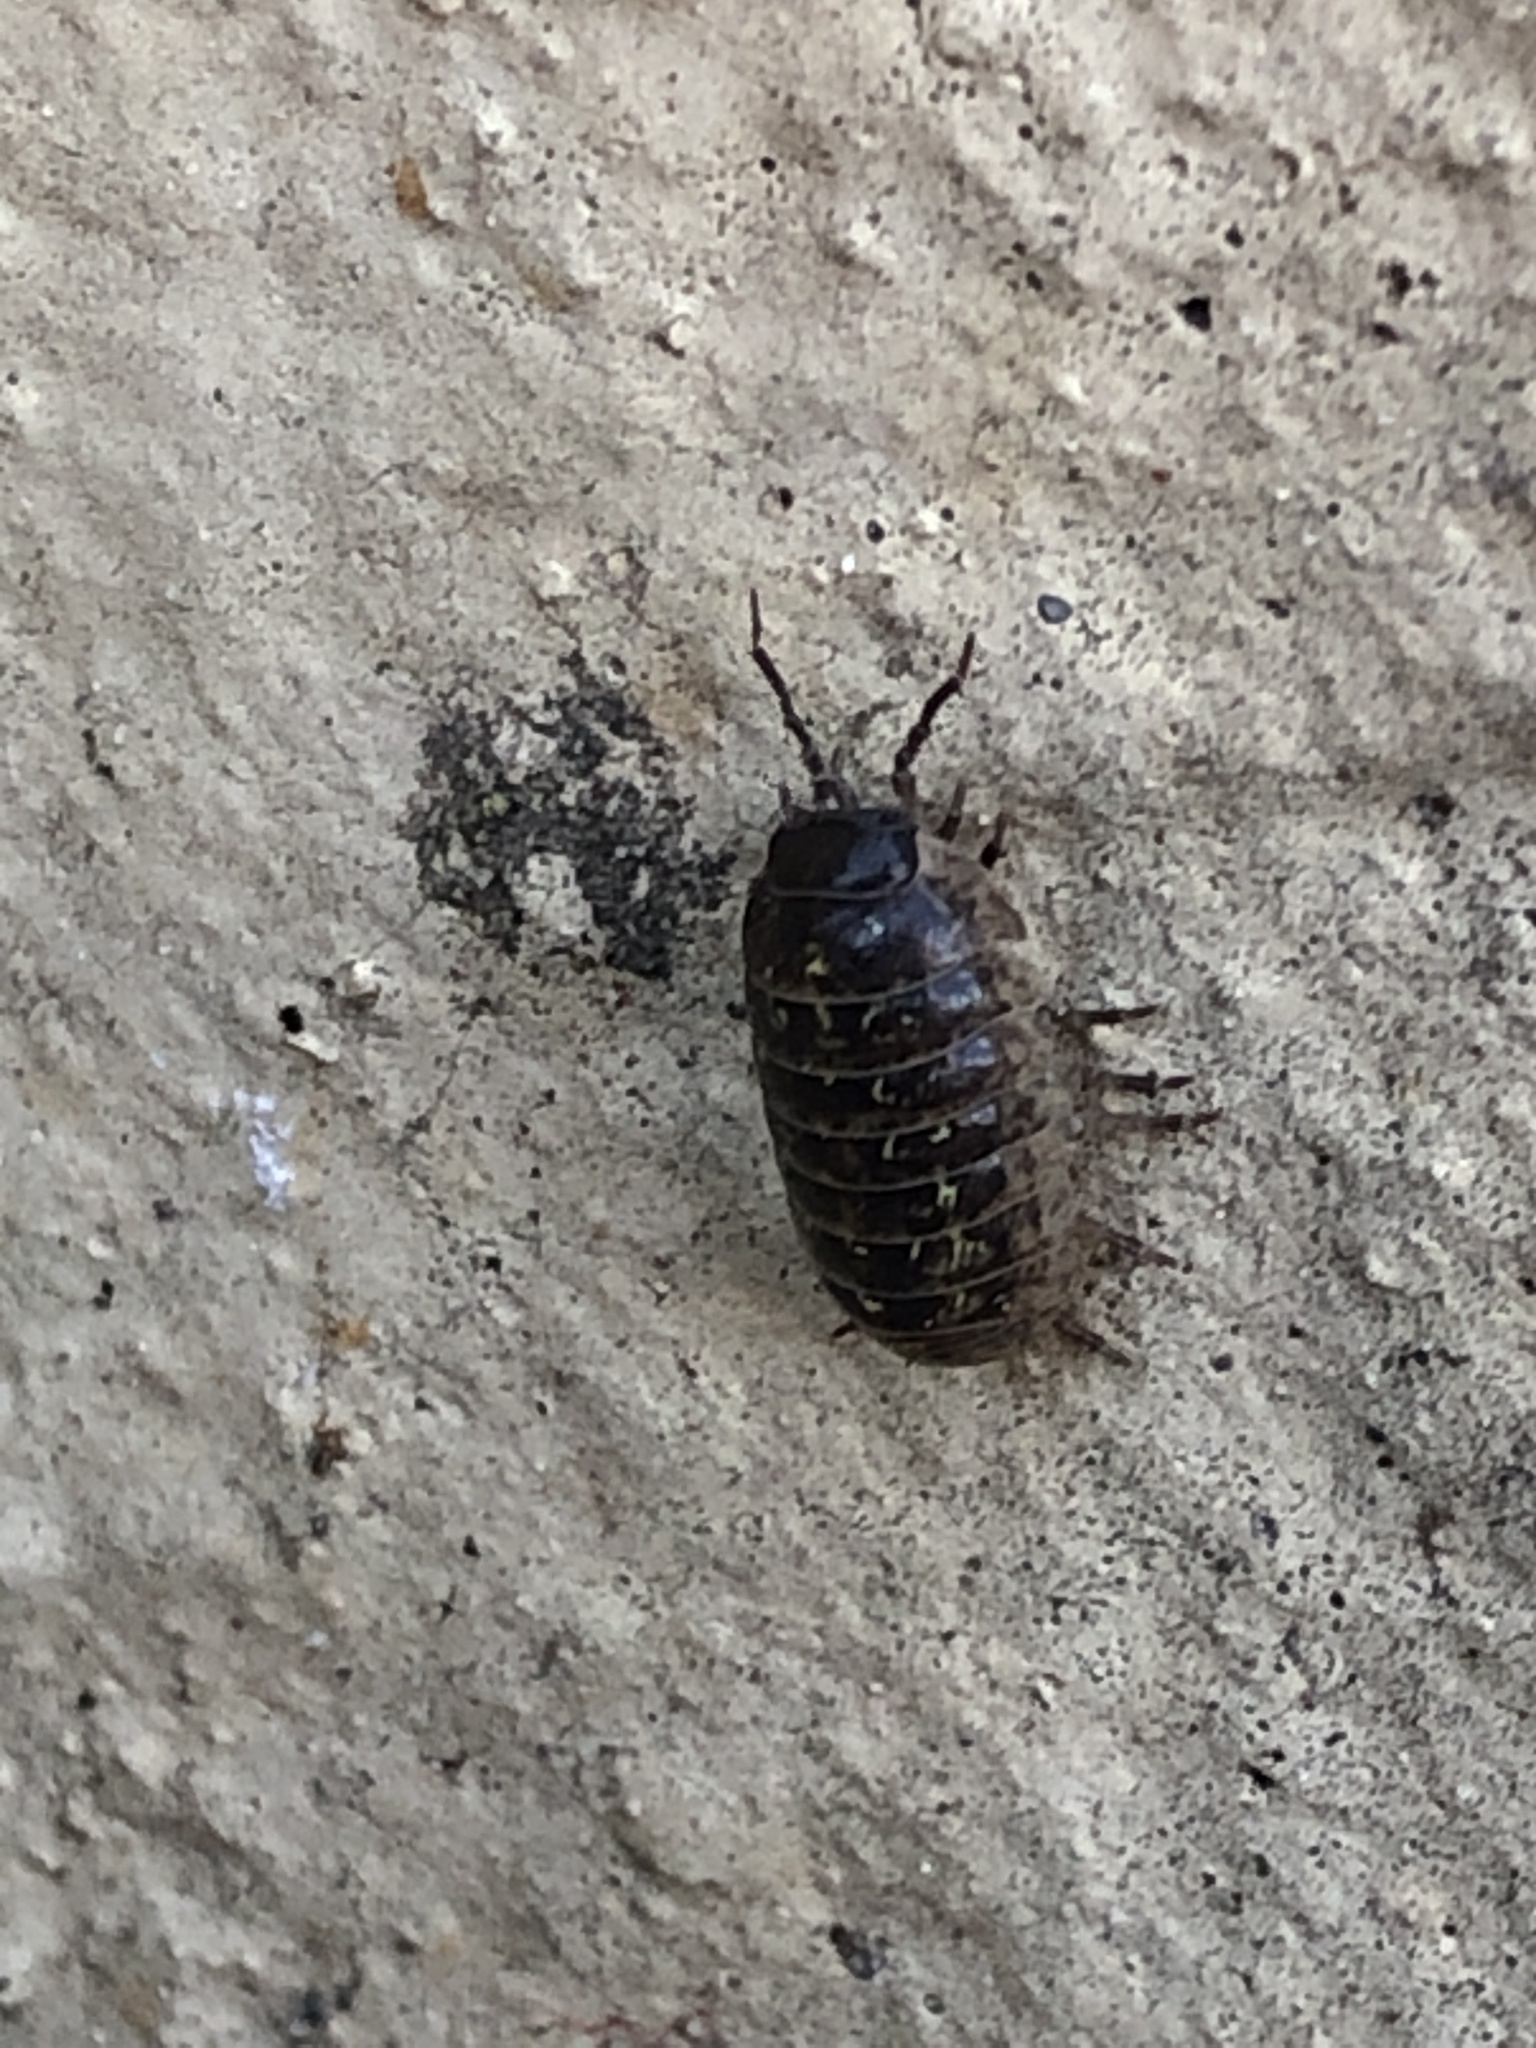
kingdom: Animalia
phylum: Arthropoda
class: Malacostraca
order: Isopoda
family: Armadillidiidae
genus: Armadillidium
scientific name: Armadillidium vulgare
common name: Common pill woodlouse
